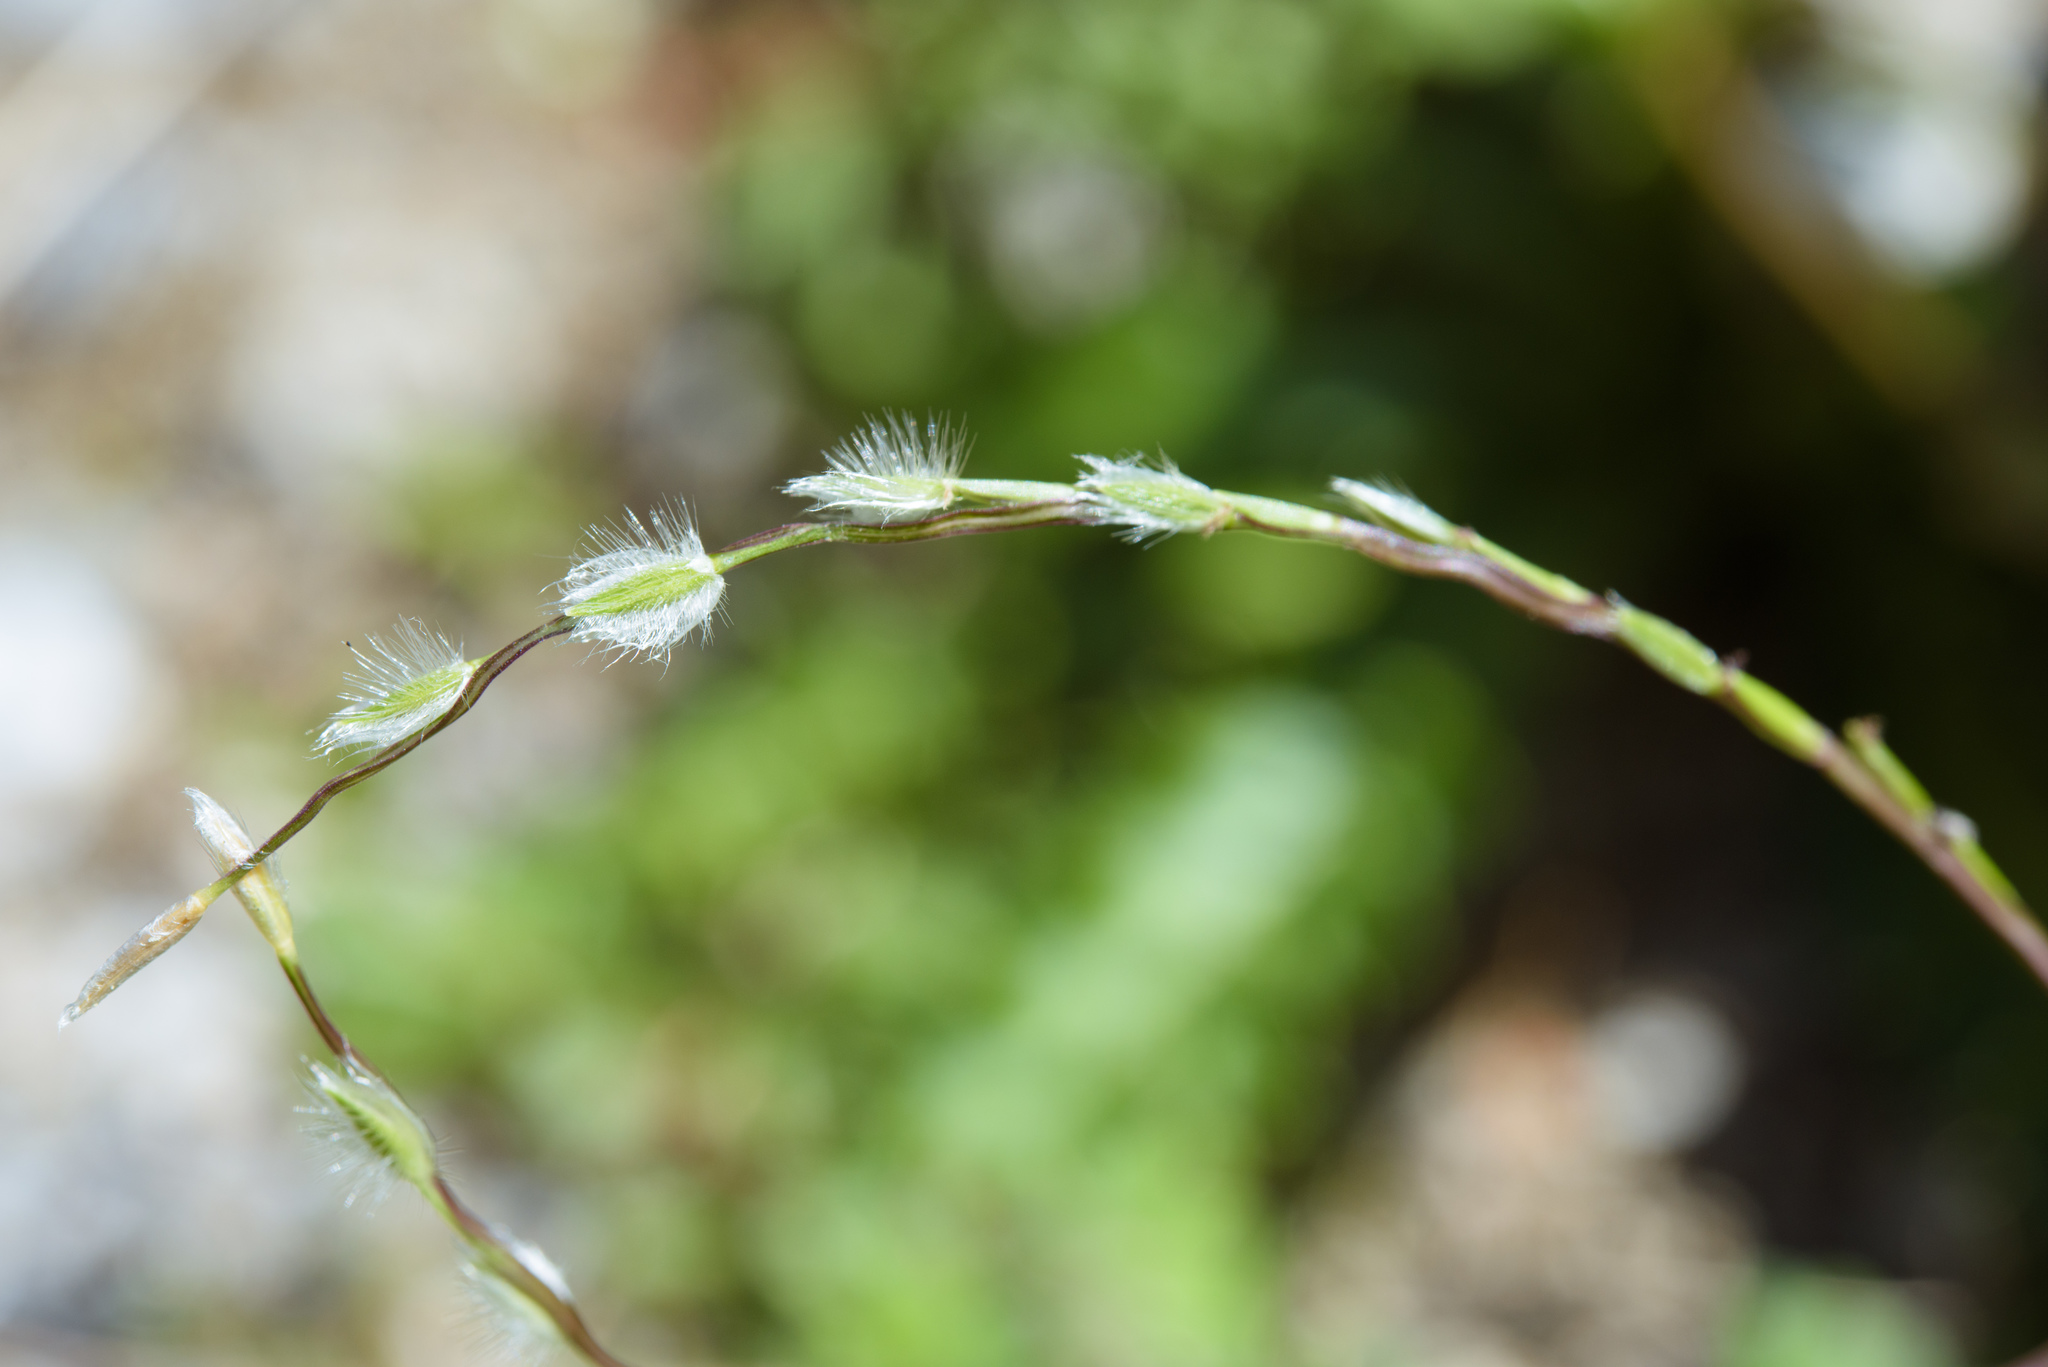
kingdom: Plantae
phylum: Tracheophyta
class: Liliopsida
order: Poales
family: Poaceae
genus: Digitaria
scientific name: Digitaria heterantha
